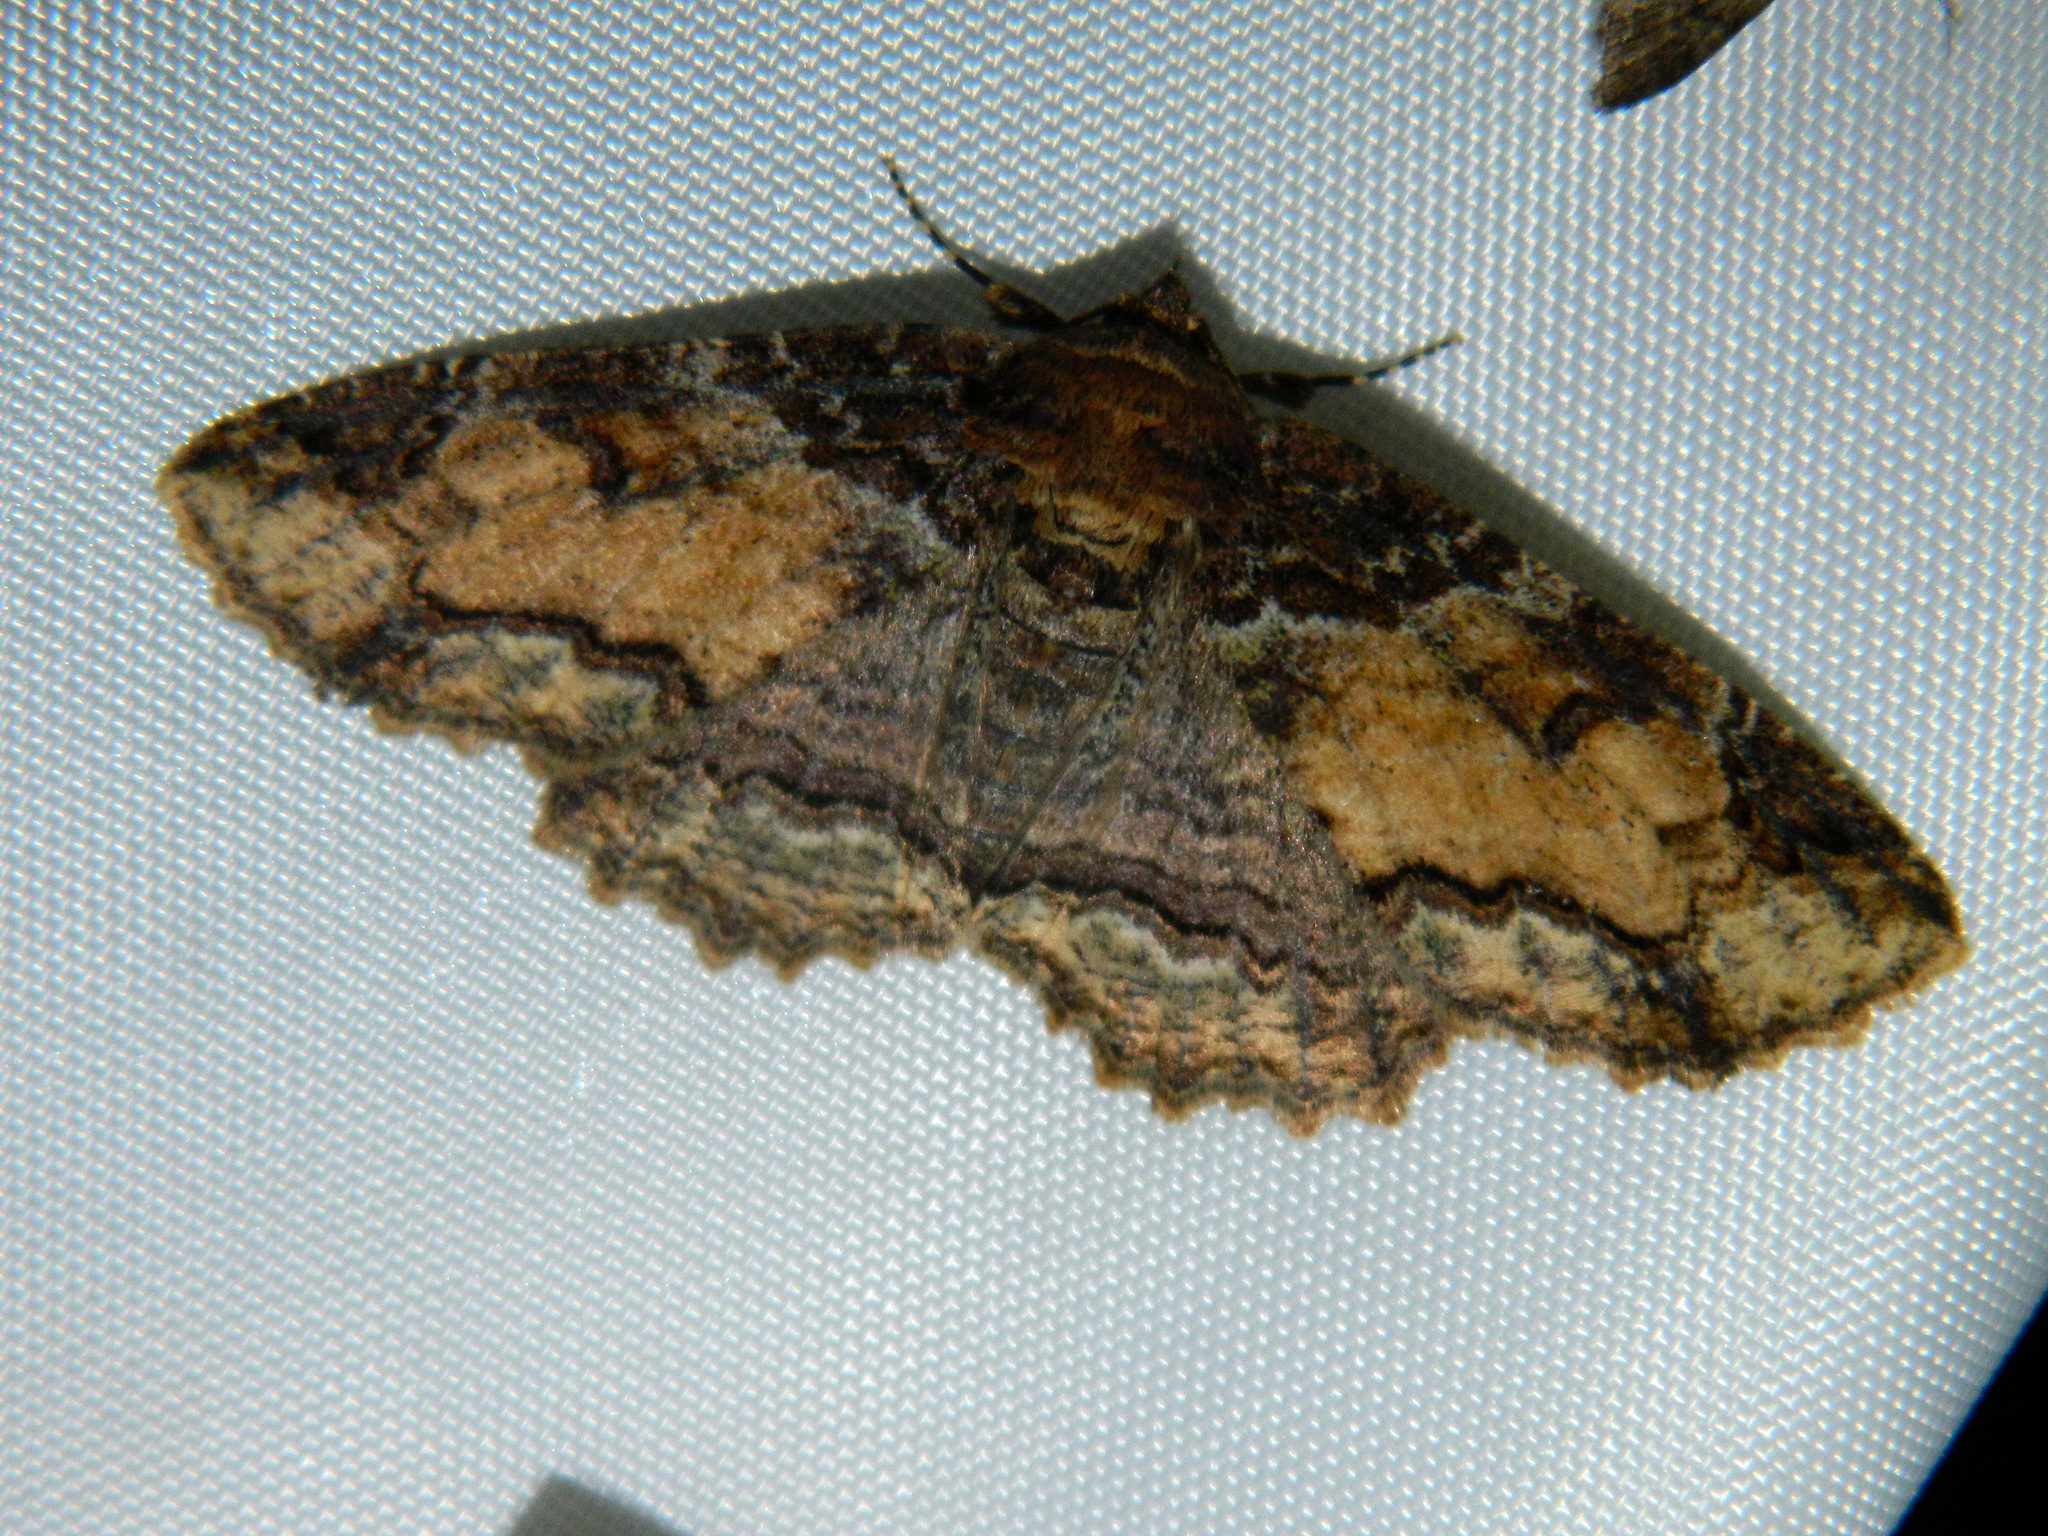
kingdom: Animalia
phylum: Arthropoda
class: Insecta
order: Lepidoptera
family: Erebidae
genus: Zale
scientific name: Zale minerea
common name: Colorful zale moth
